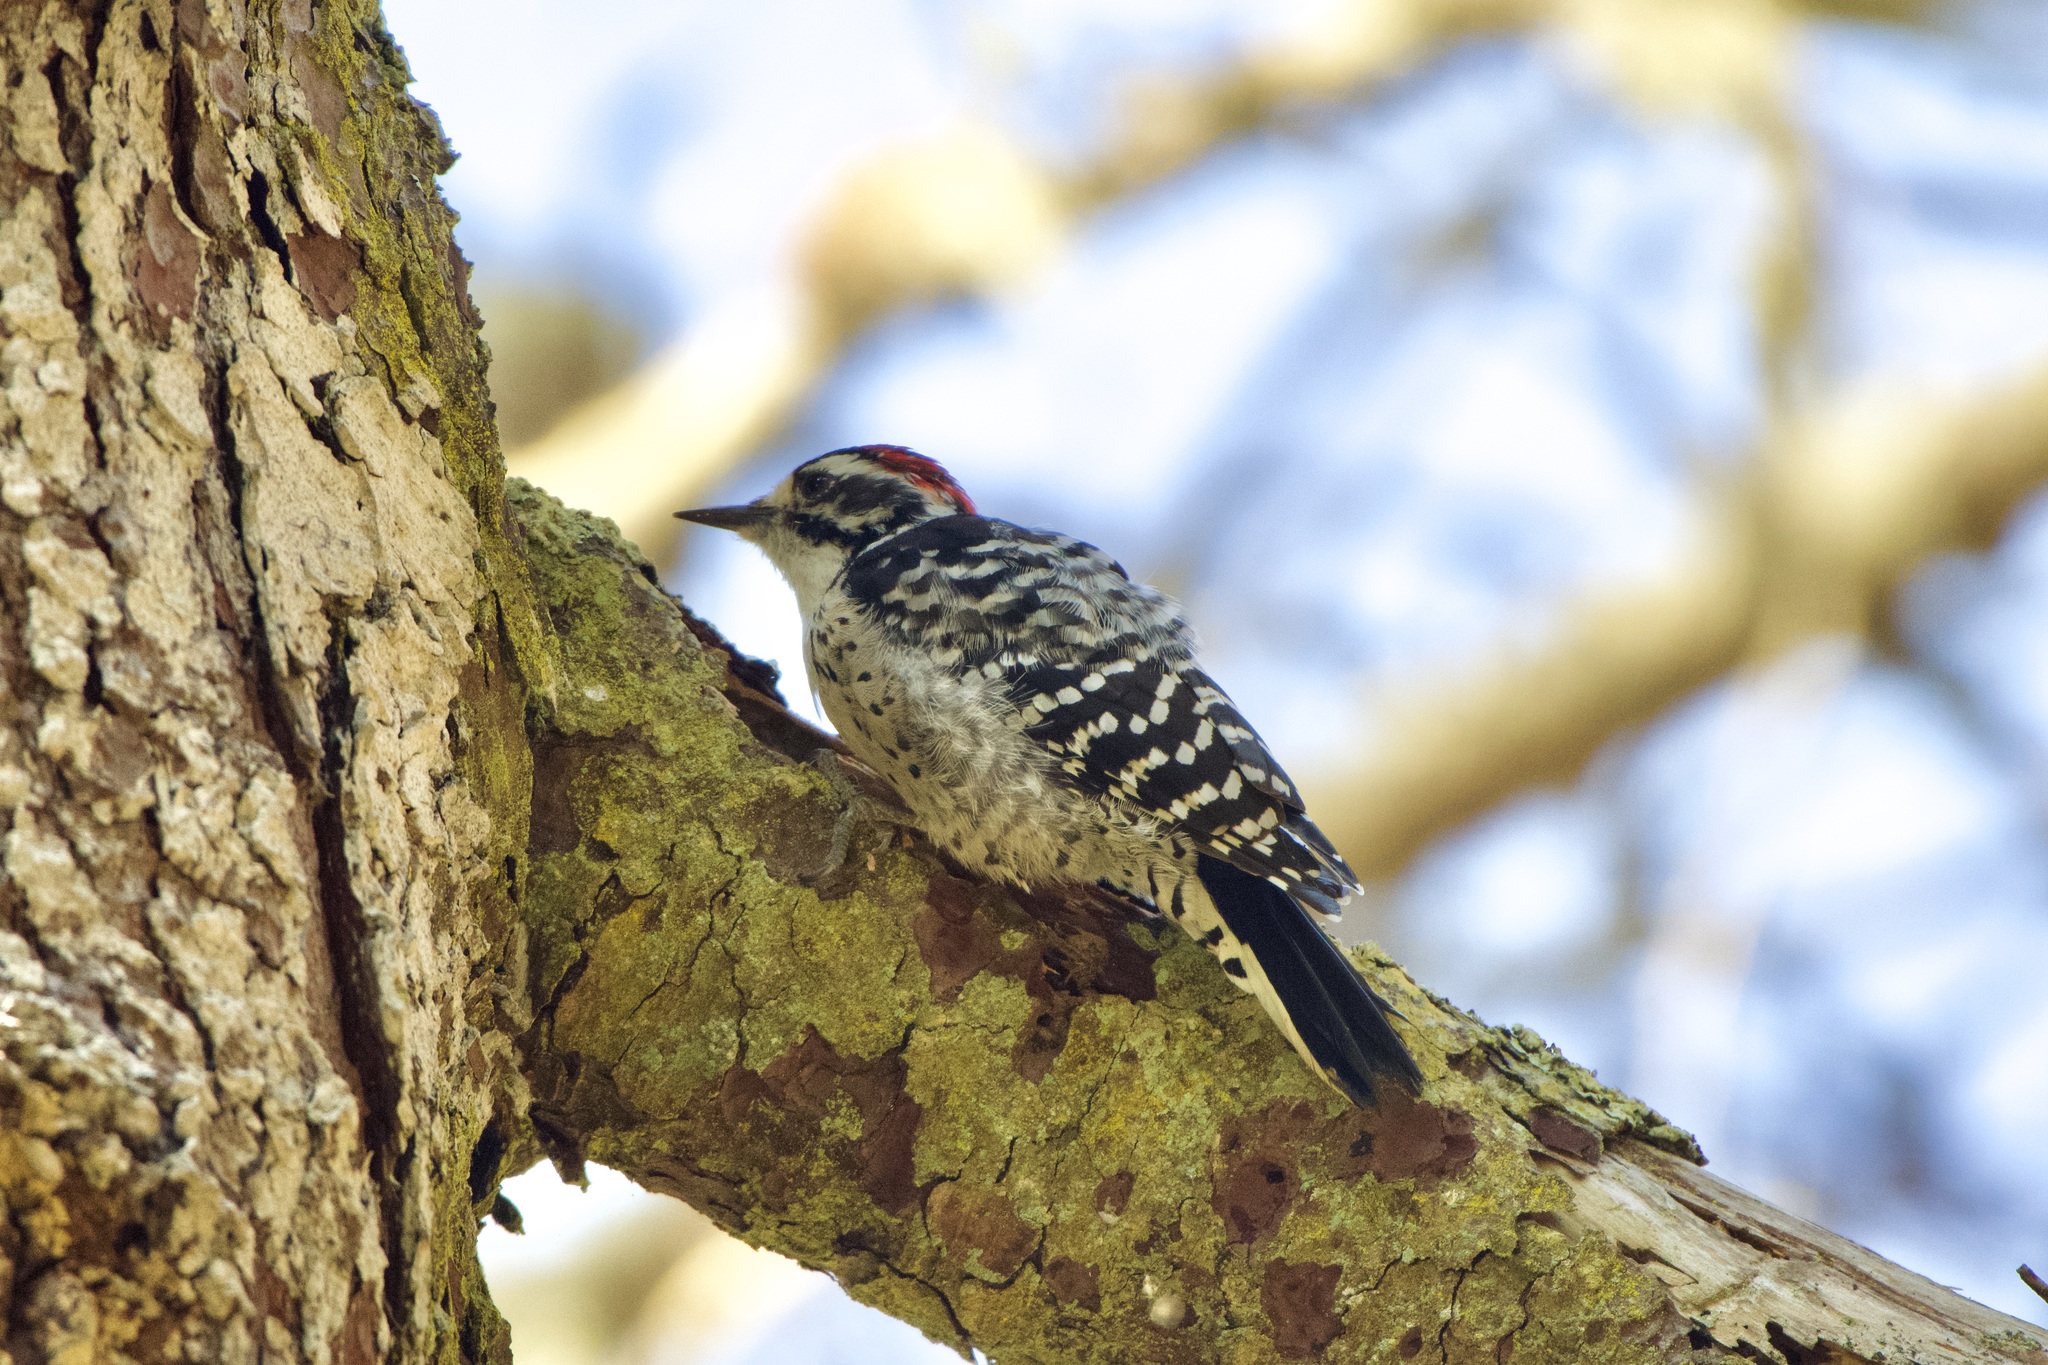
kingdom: Animalia
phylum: Chordata
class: Aves
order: Piciformes
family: Picidae
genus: Dryobates
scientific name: Dryobates nuttallii
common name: Nuttall's woodpecker
